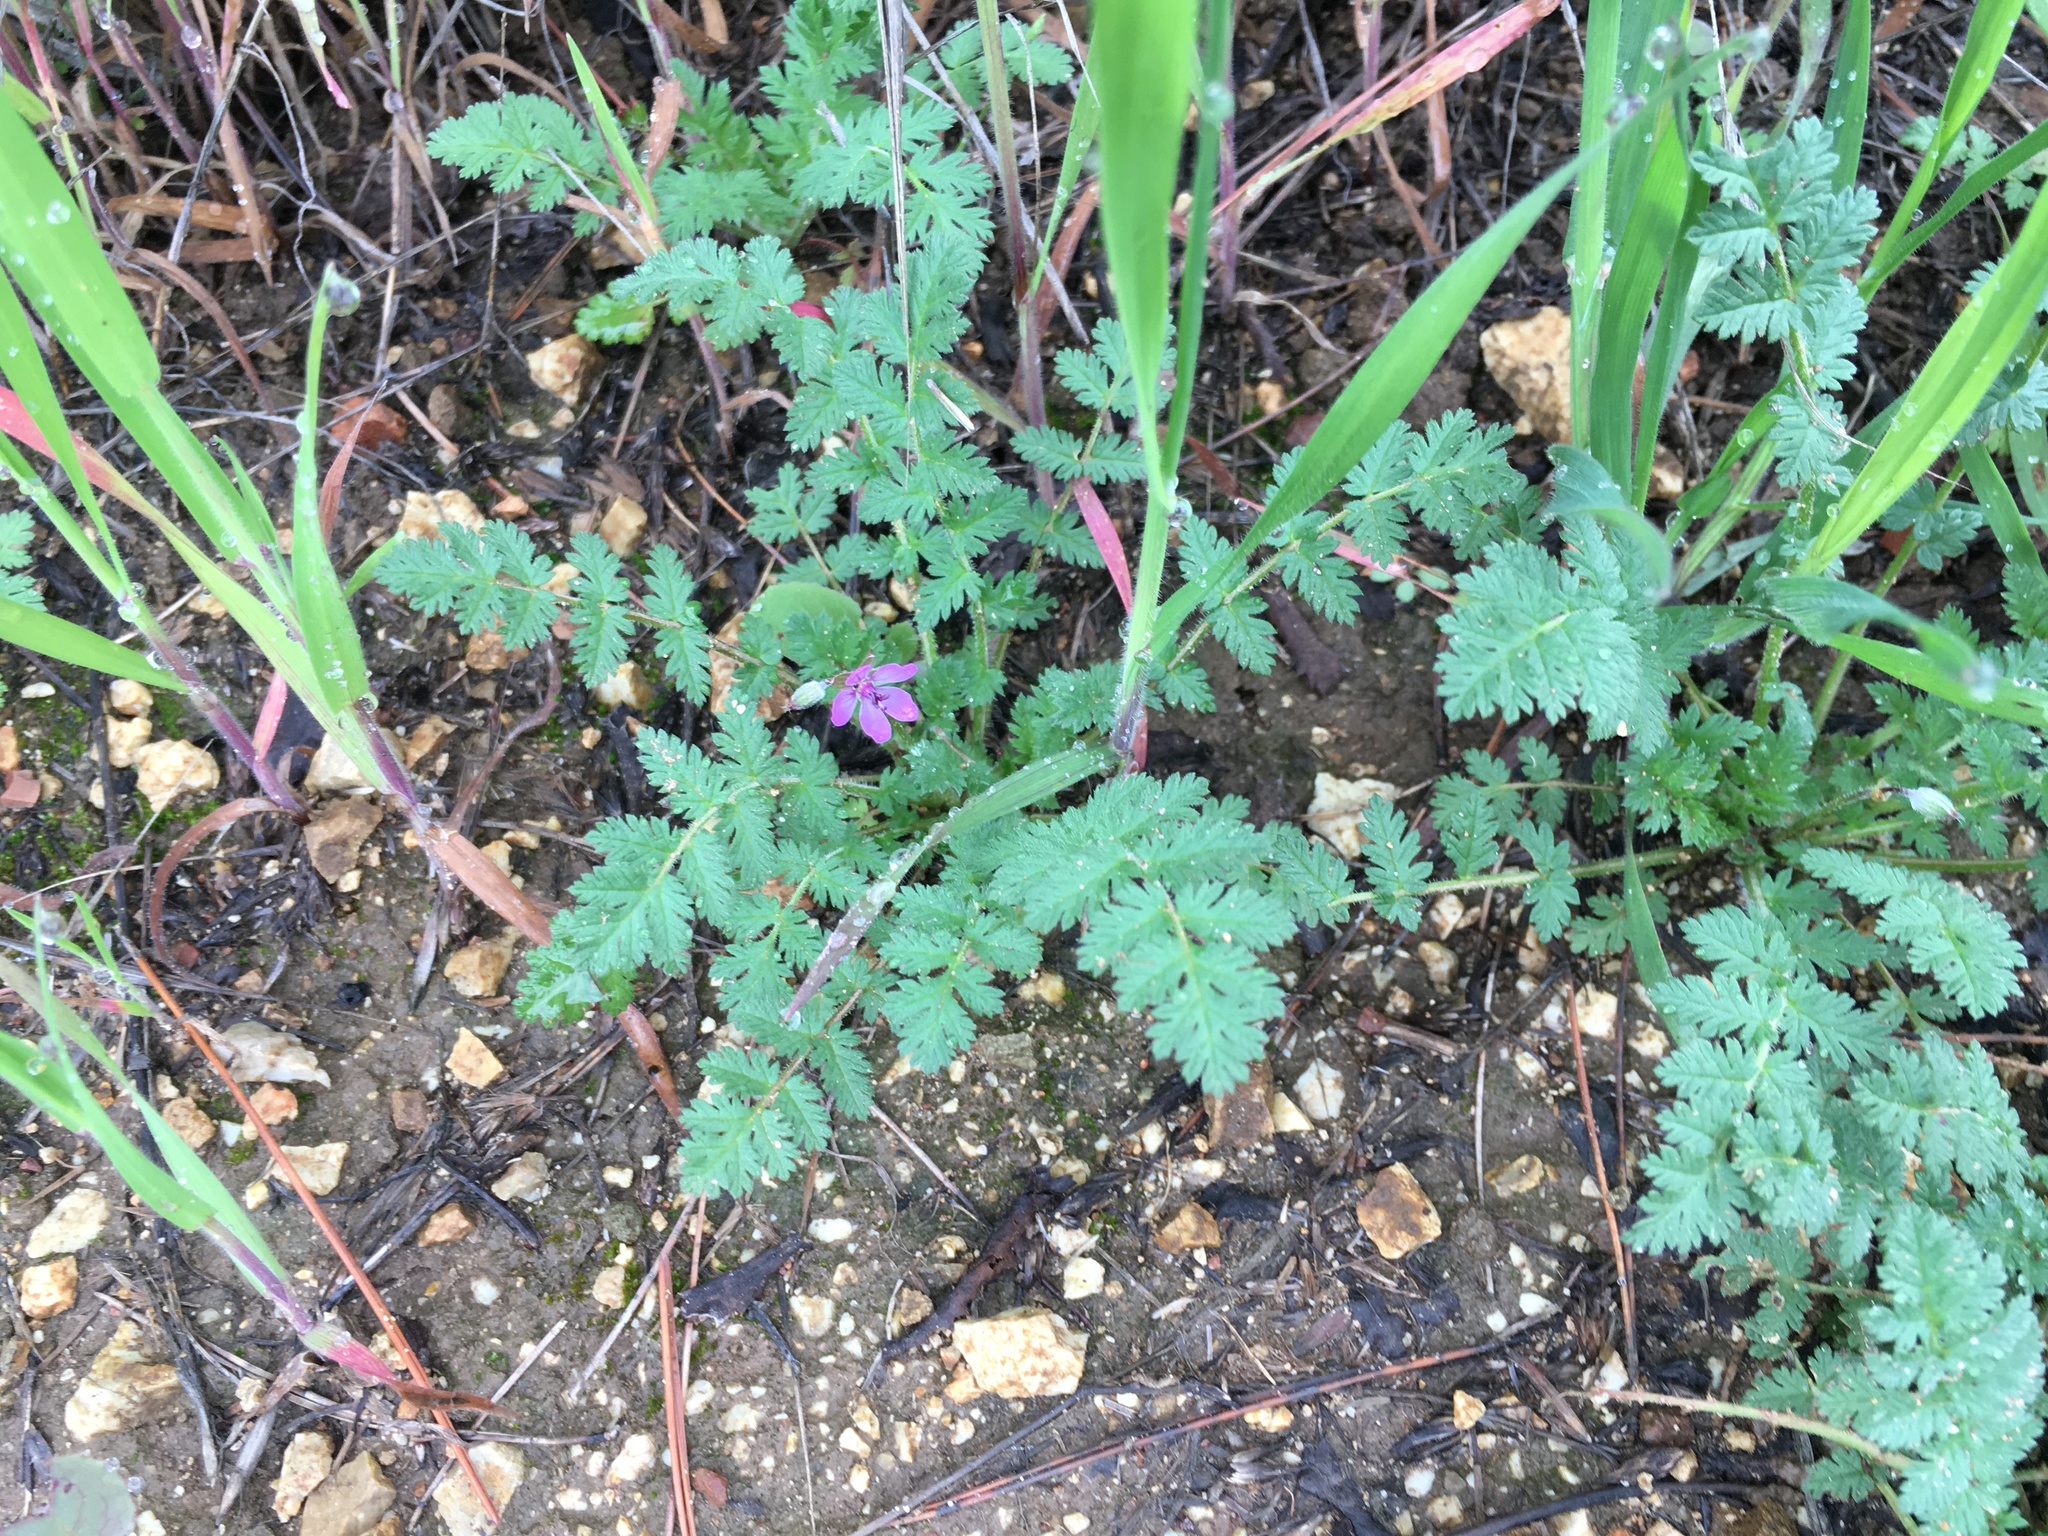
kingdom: Plantae
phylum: Tracheophyta
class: Magnoliopsida
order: Geraniales
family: Geraniaceae
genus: Erodium
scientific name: Erodium cicutarium
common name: Common stork's-bill
